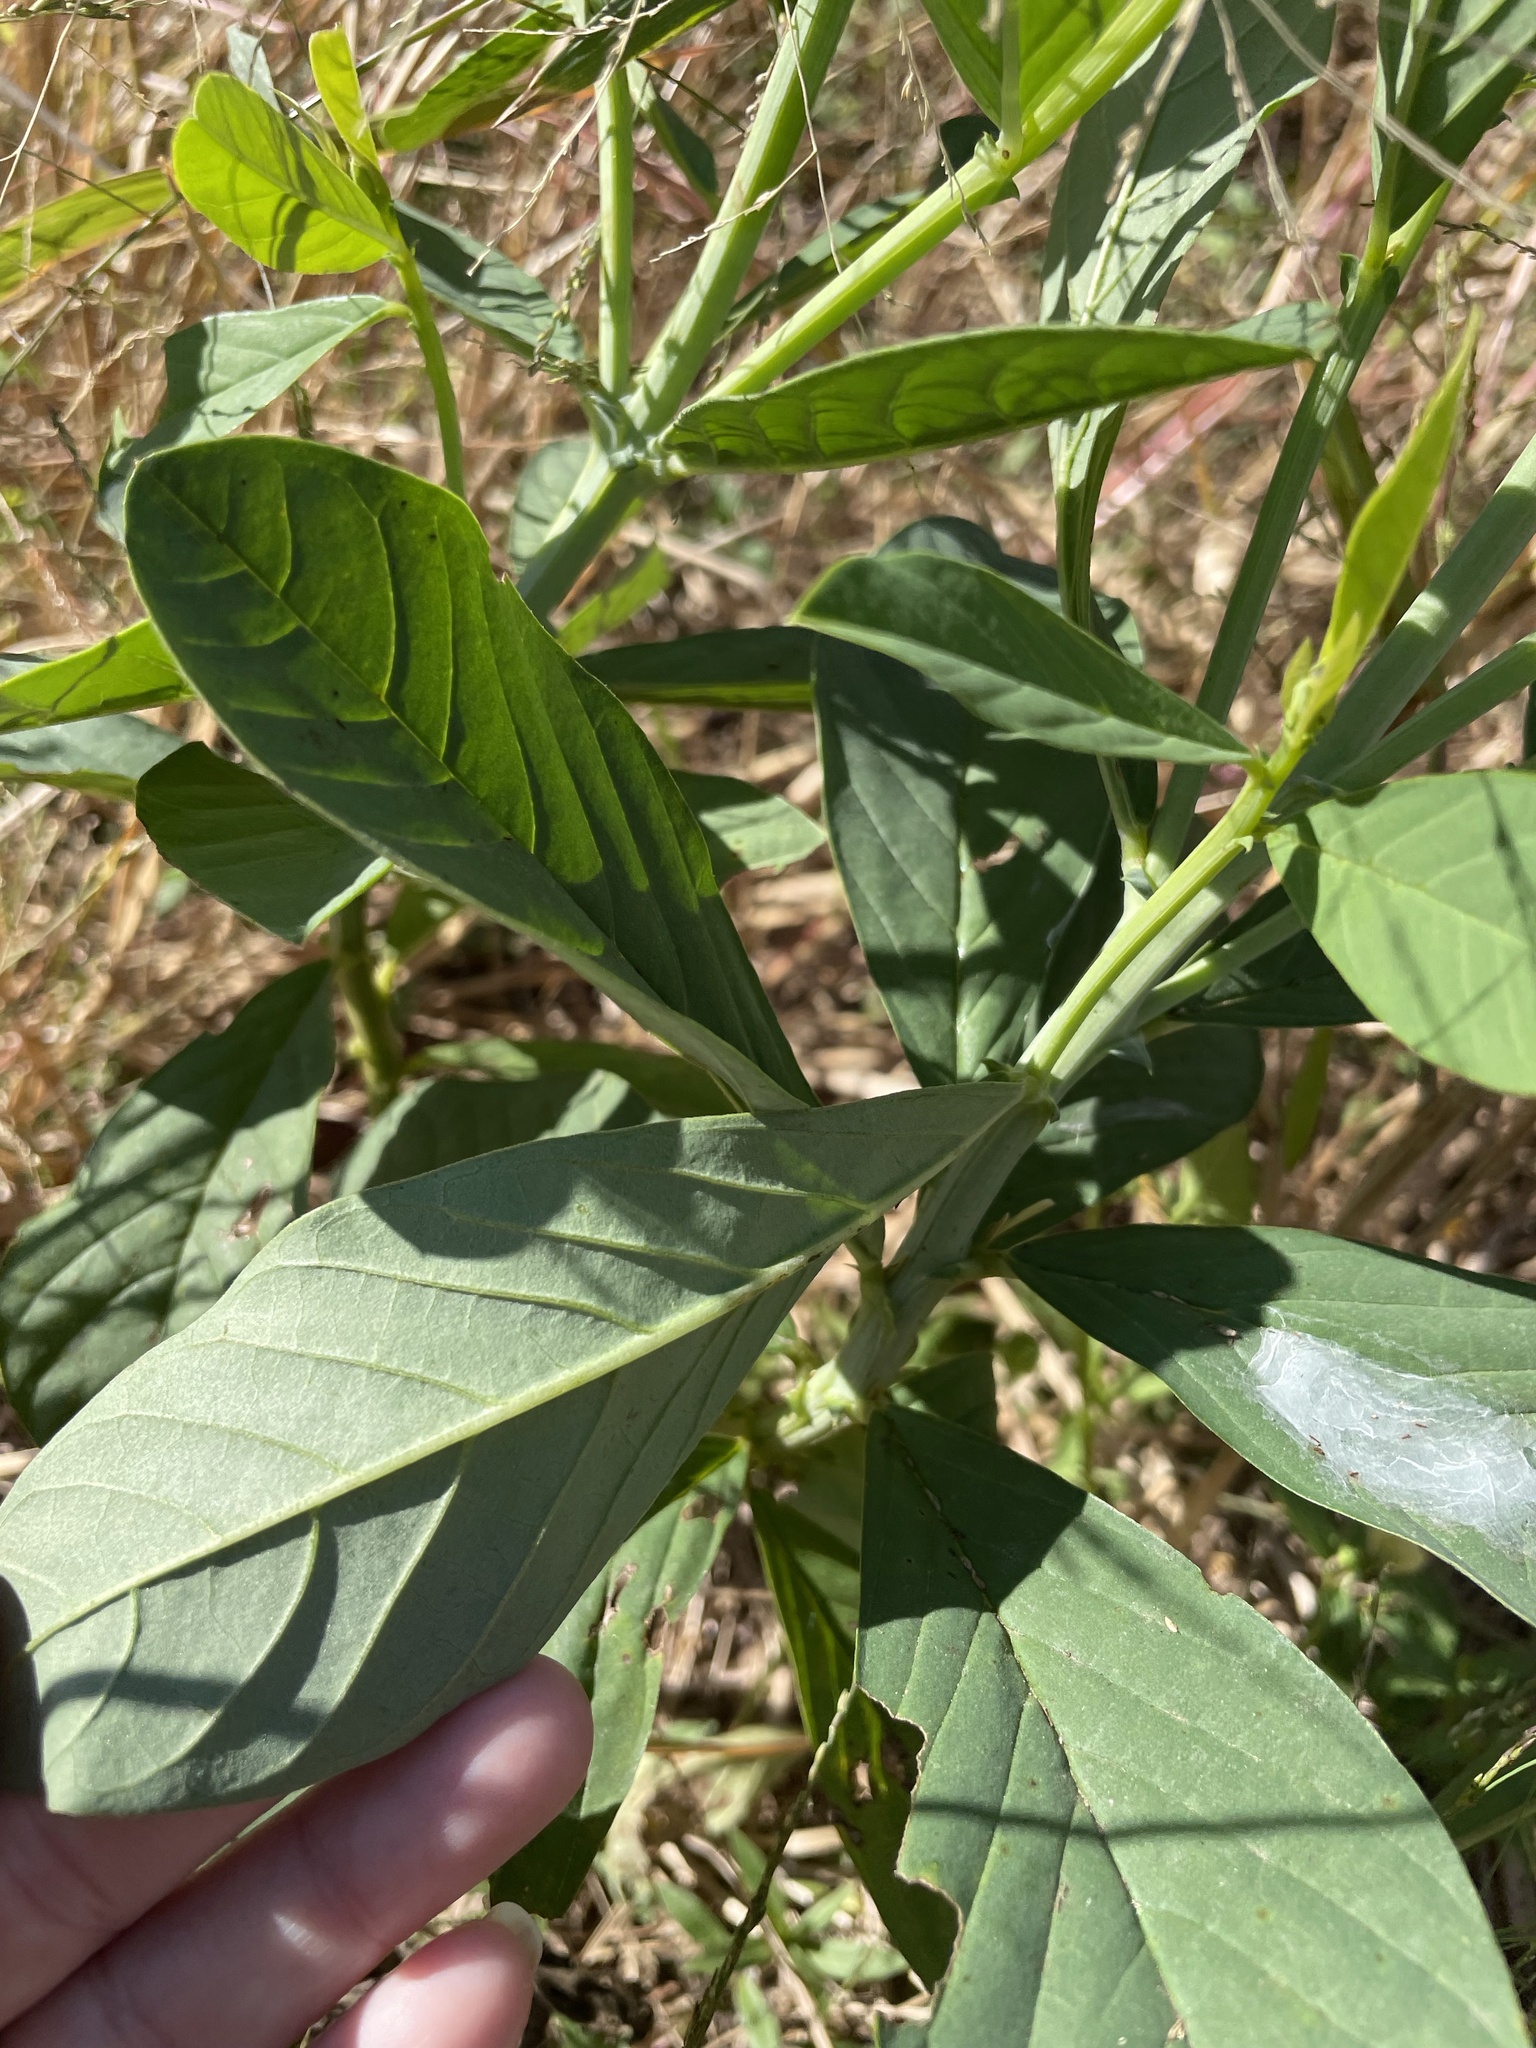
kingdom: Plantae
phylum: Tracheophyta
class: Magnoliopsida
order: Fabales
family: Fabaceae
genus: Crotalaria
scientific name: Crotalaria spectabilis
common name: Showy rattlebox
